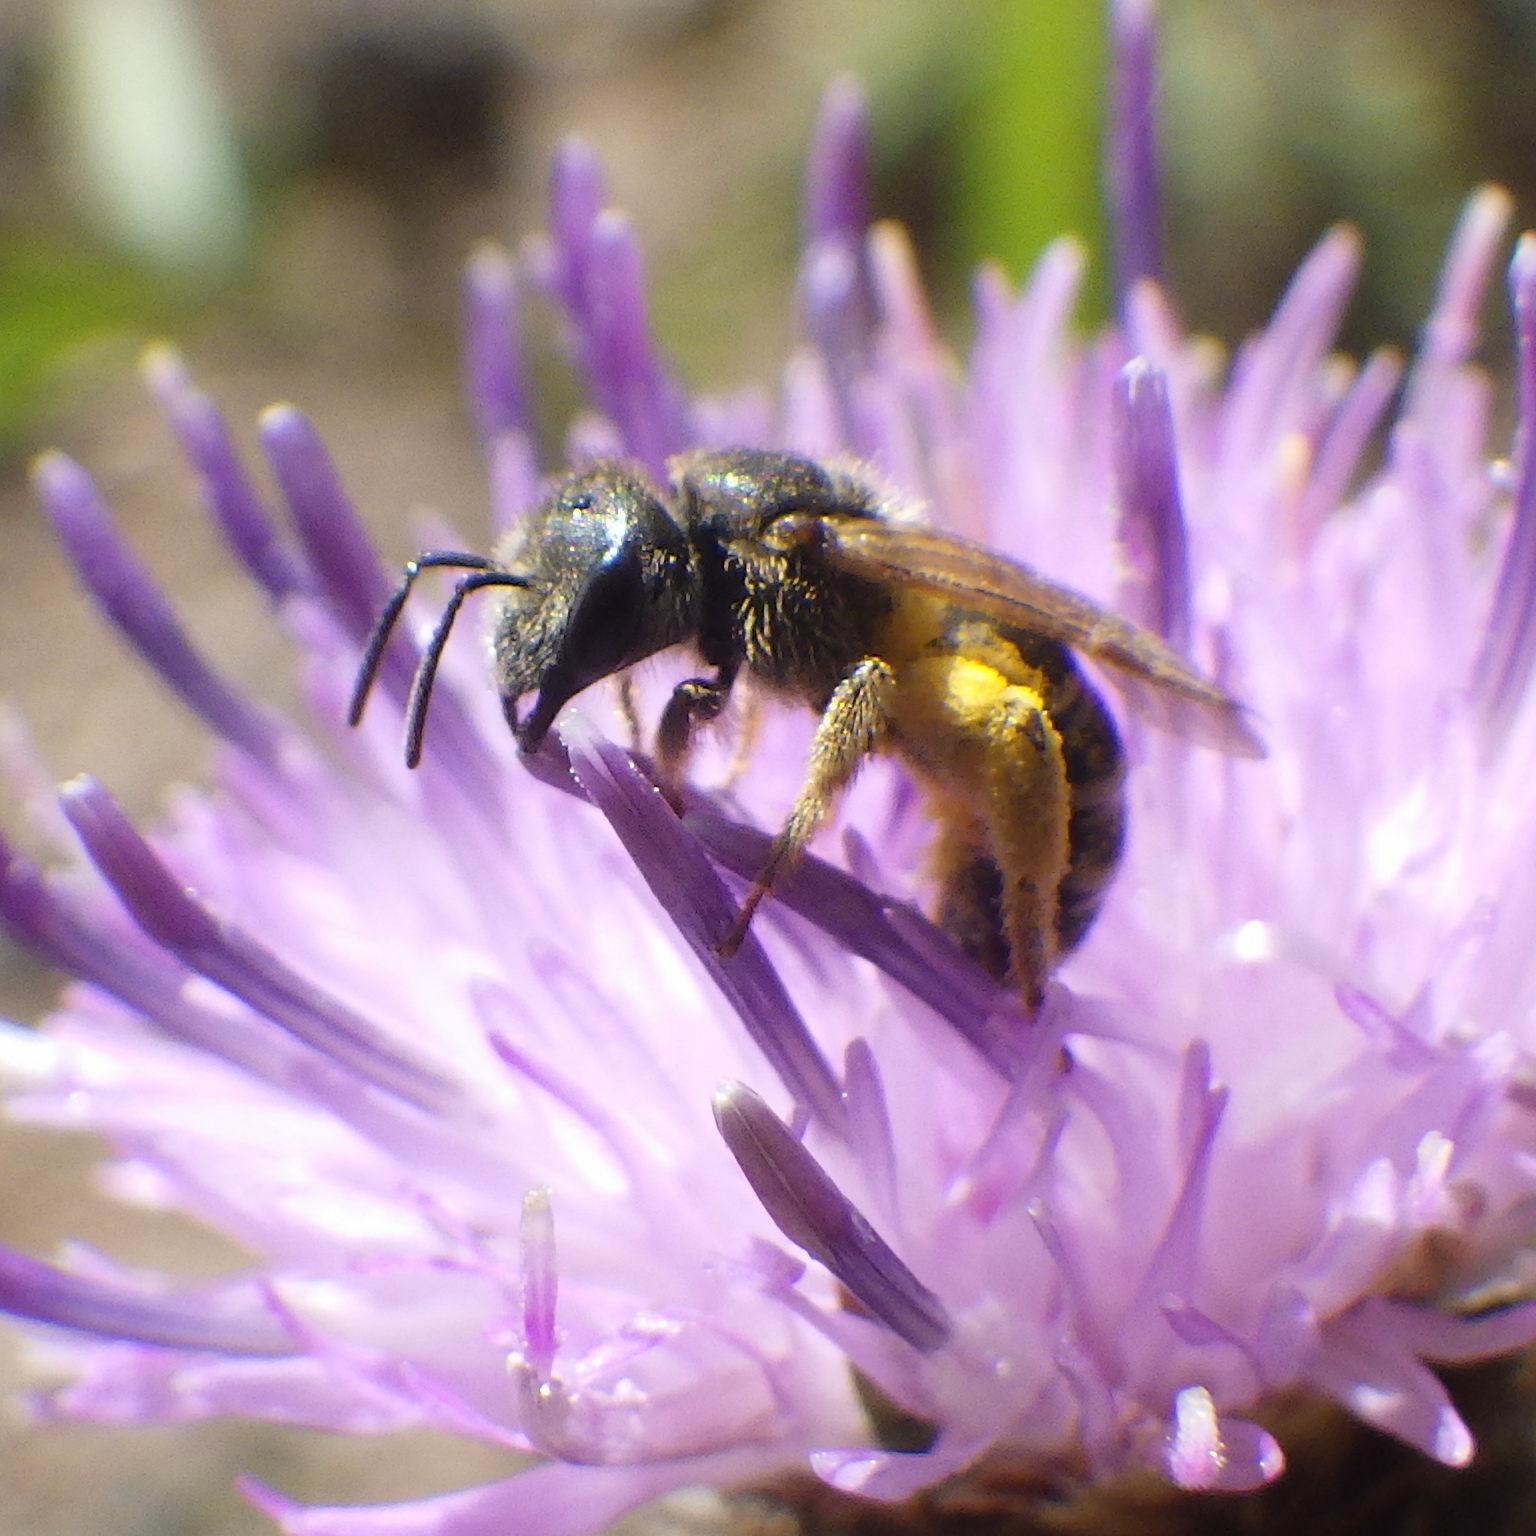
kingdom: Animalia
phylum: Arthropoda
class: Insecta
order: Hymenoptera
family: Halictidae
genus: Halictus
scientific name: Halictus ligatus
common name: Ligated furrow bee
